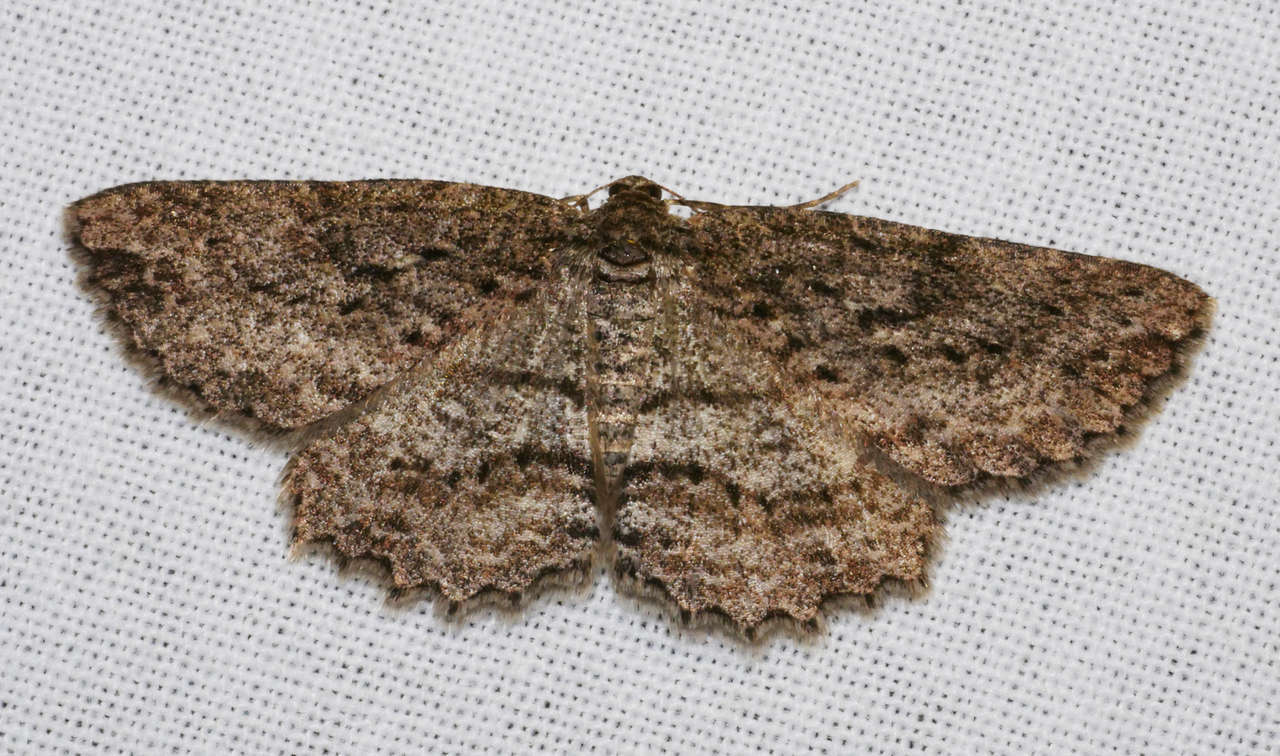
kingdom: Animalia
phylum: Arthropoda
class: Insecta
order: Lepidoptera
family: Geometridae
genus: Ectropis
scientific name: Ectropis fractaria
